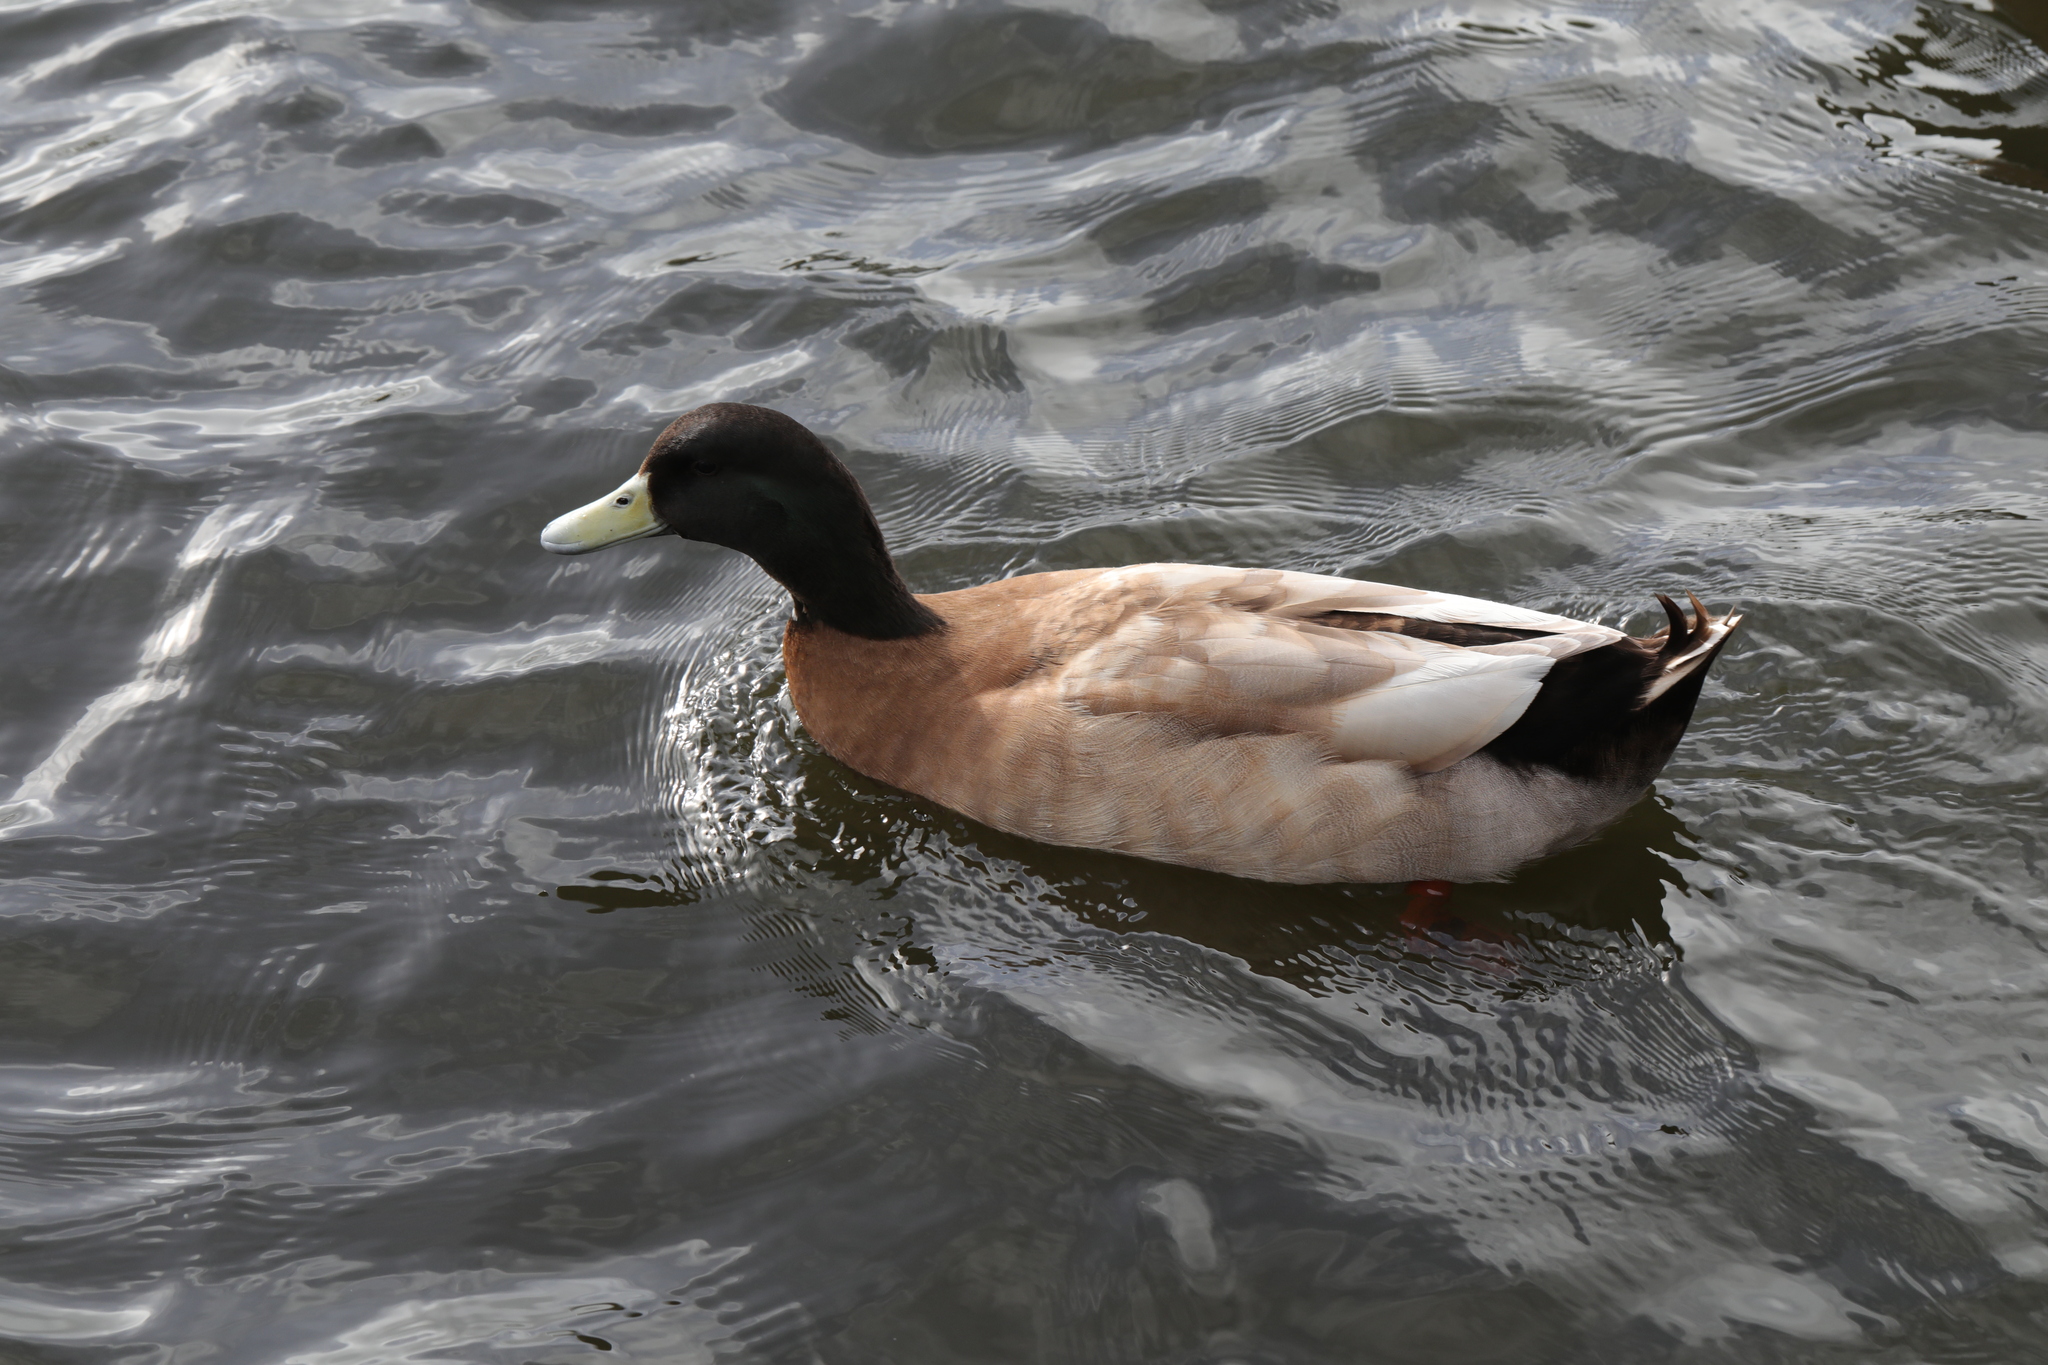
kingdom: Animalia
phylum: Chordata
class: Aves
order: Anseriformes
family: Anatidae
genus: Anas
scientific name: Anas platyrhynchos
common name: Mallard
